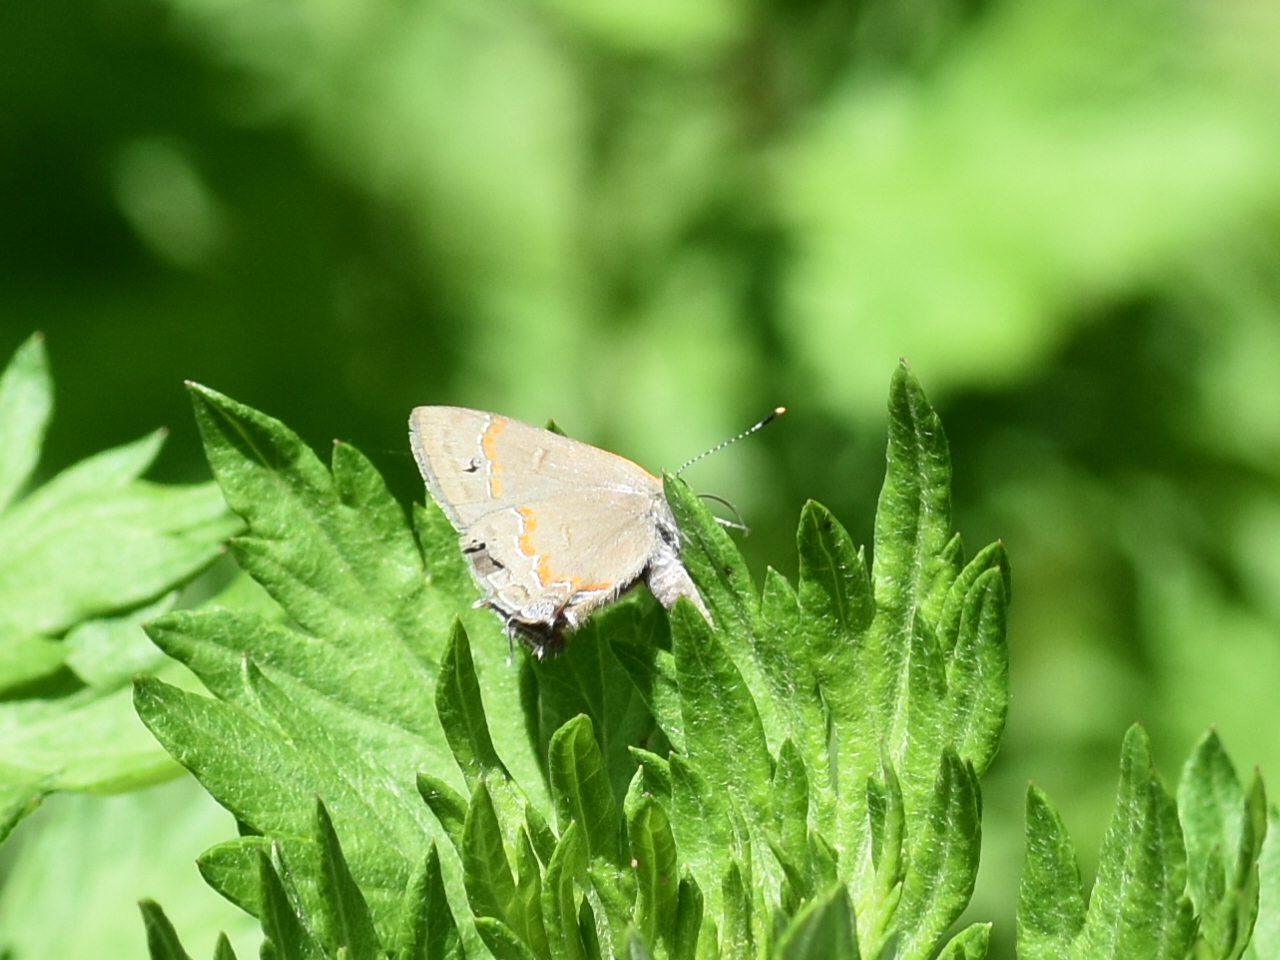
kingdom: Animalia
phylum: Arthropoda
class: Insecta
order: Lepidoptera
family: Lycaenidae
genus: Calycopis
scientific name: Calycopis cecrops
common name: Red-banded hairstreak
